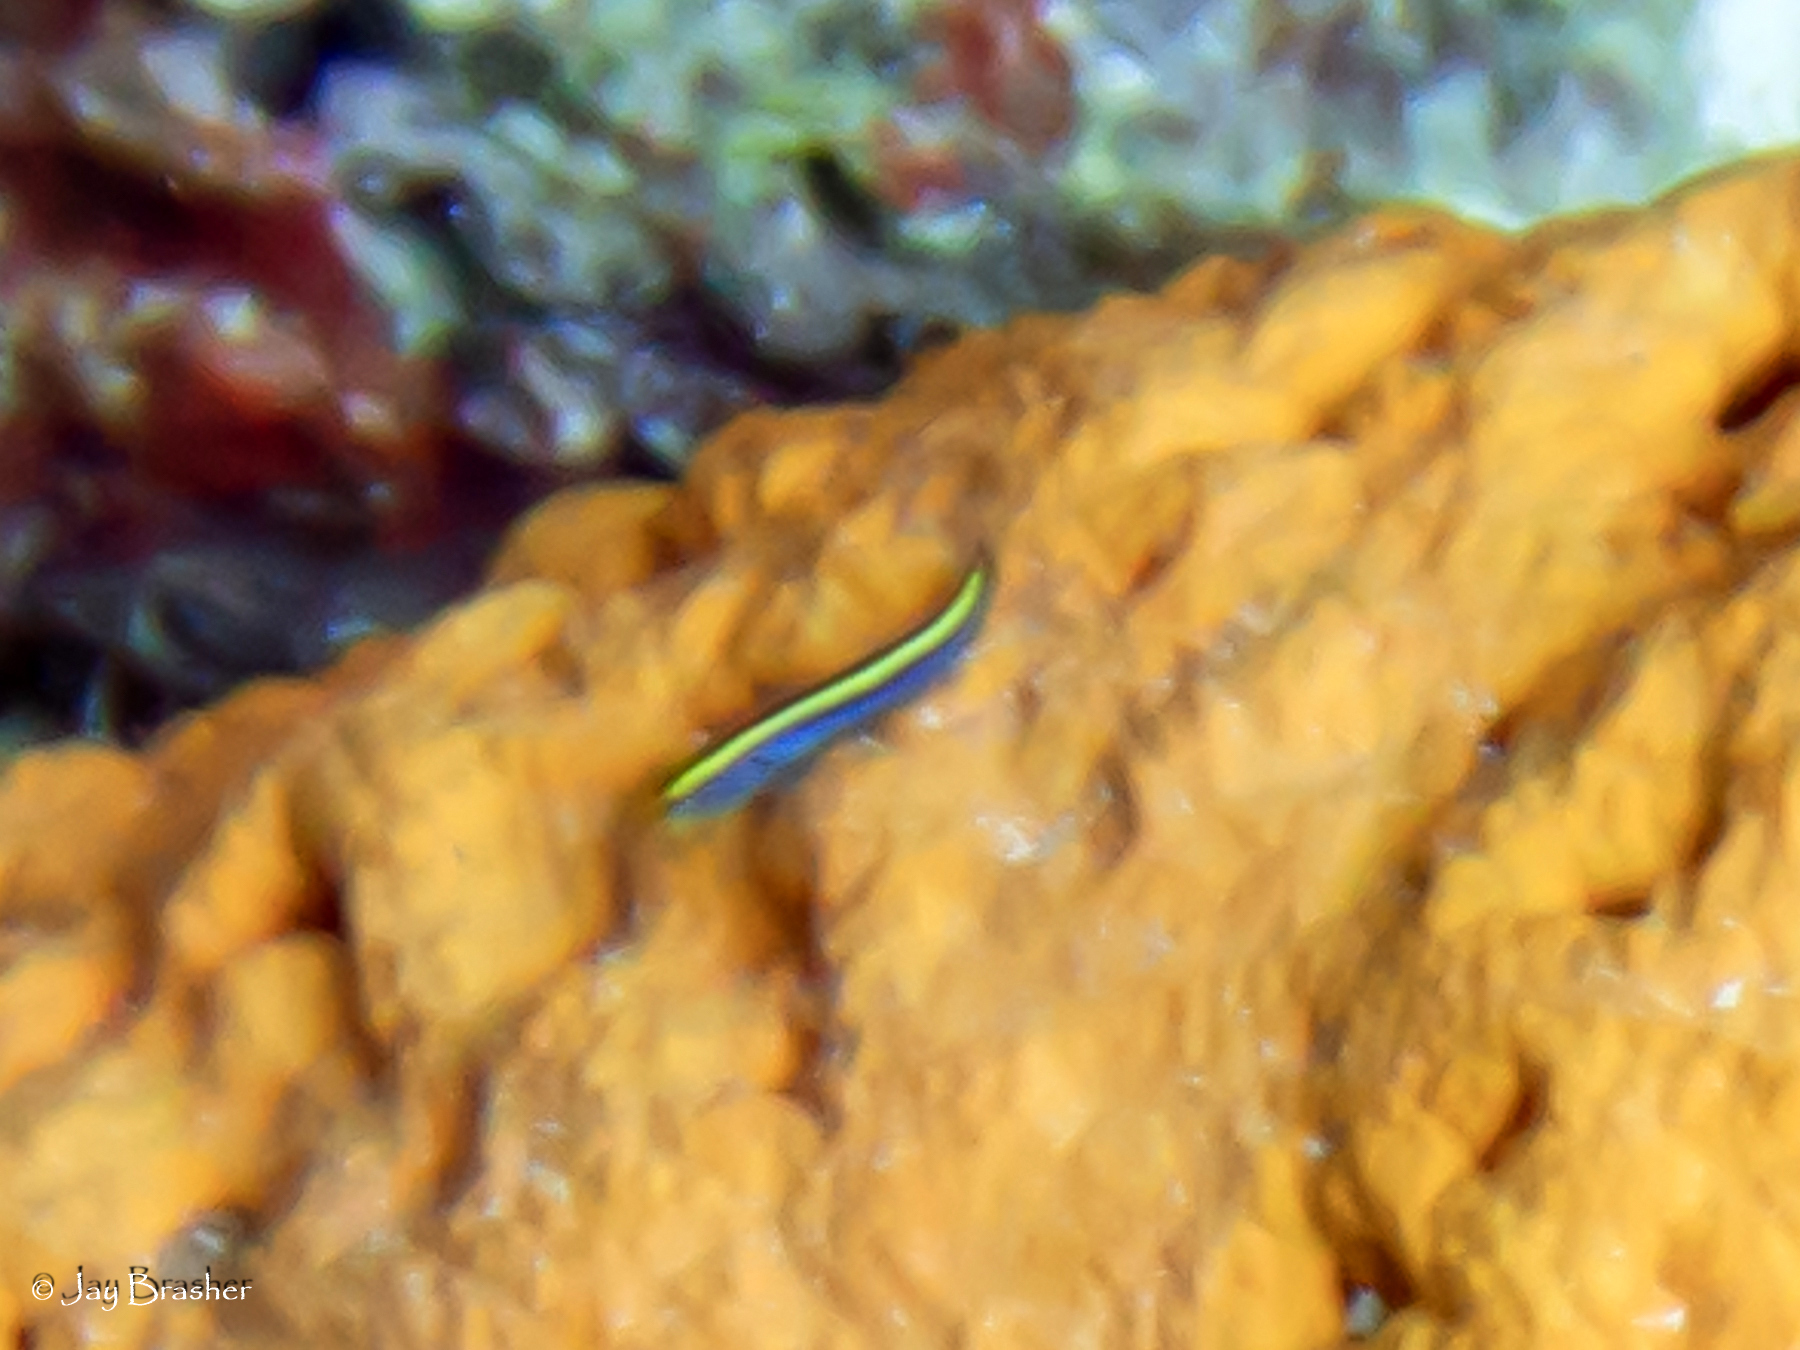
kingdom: Animalia
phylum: Chordata
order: Perciformes
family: Gobiidae
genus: Elacatinus
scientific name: Elacatinus randalli
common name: Yellownose goby
